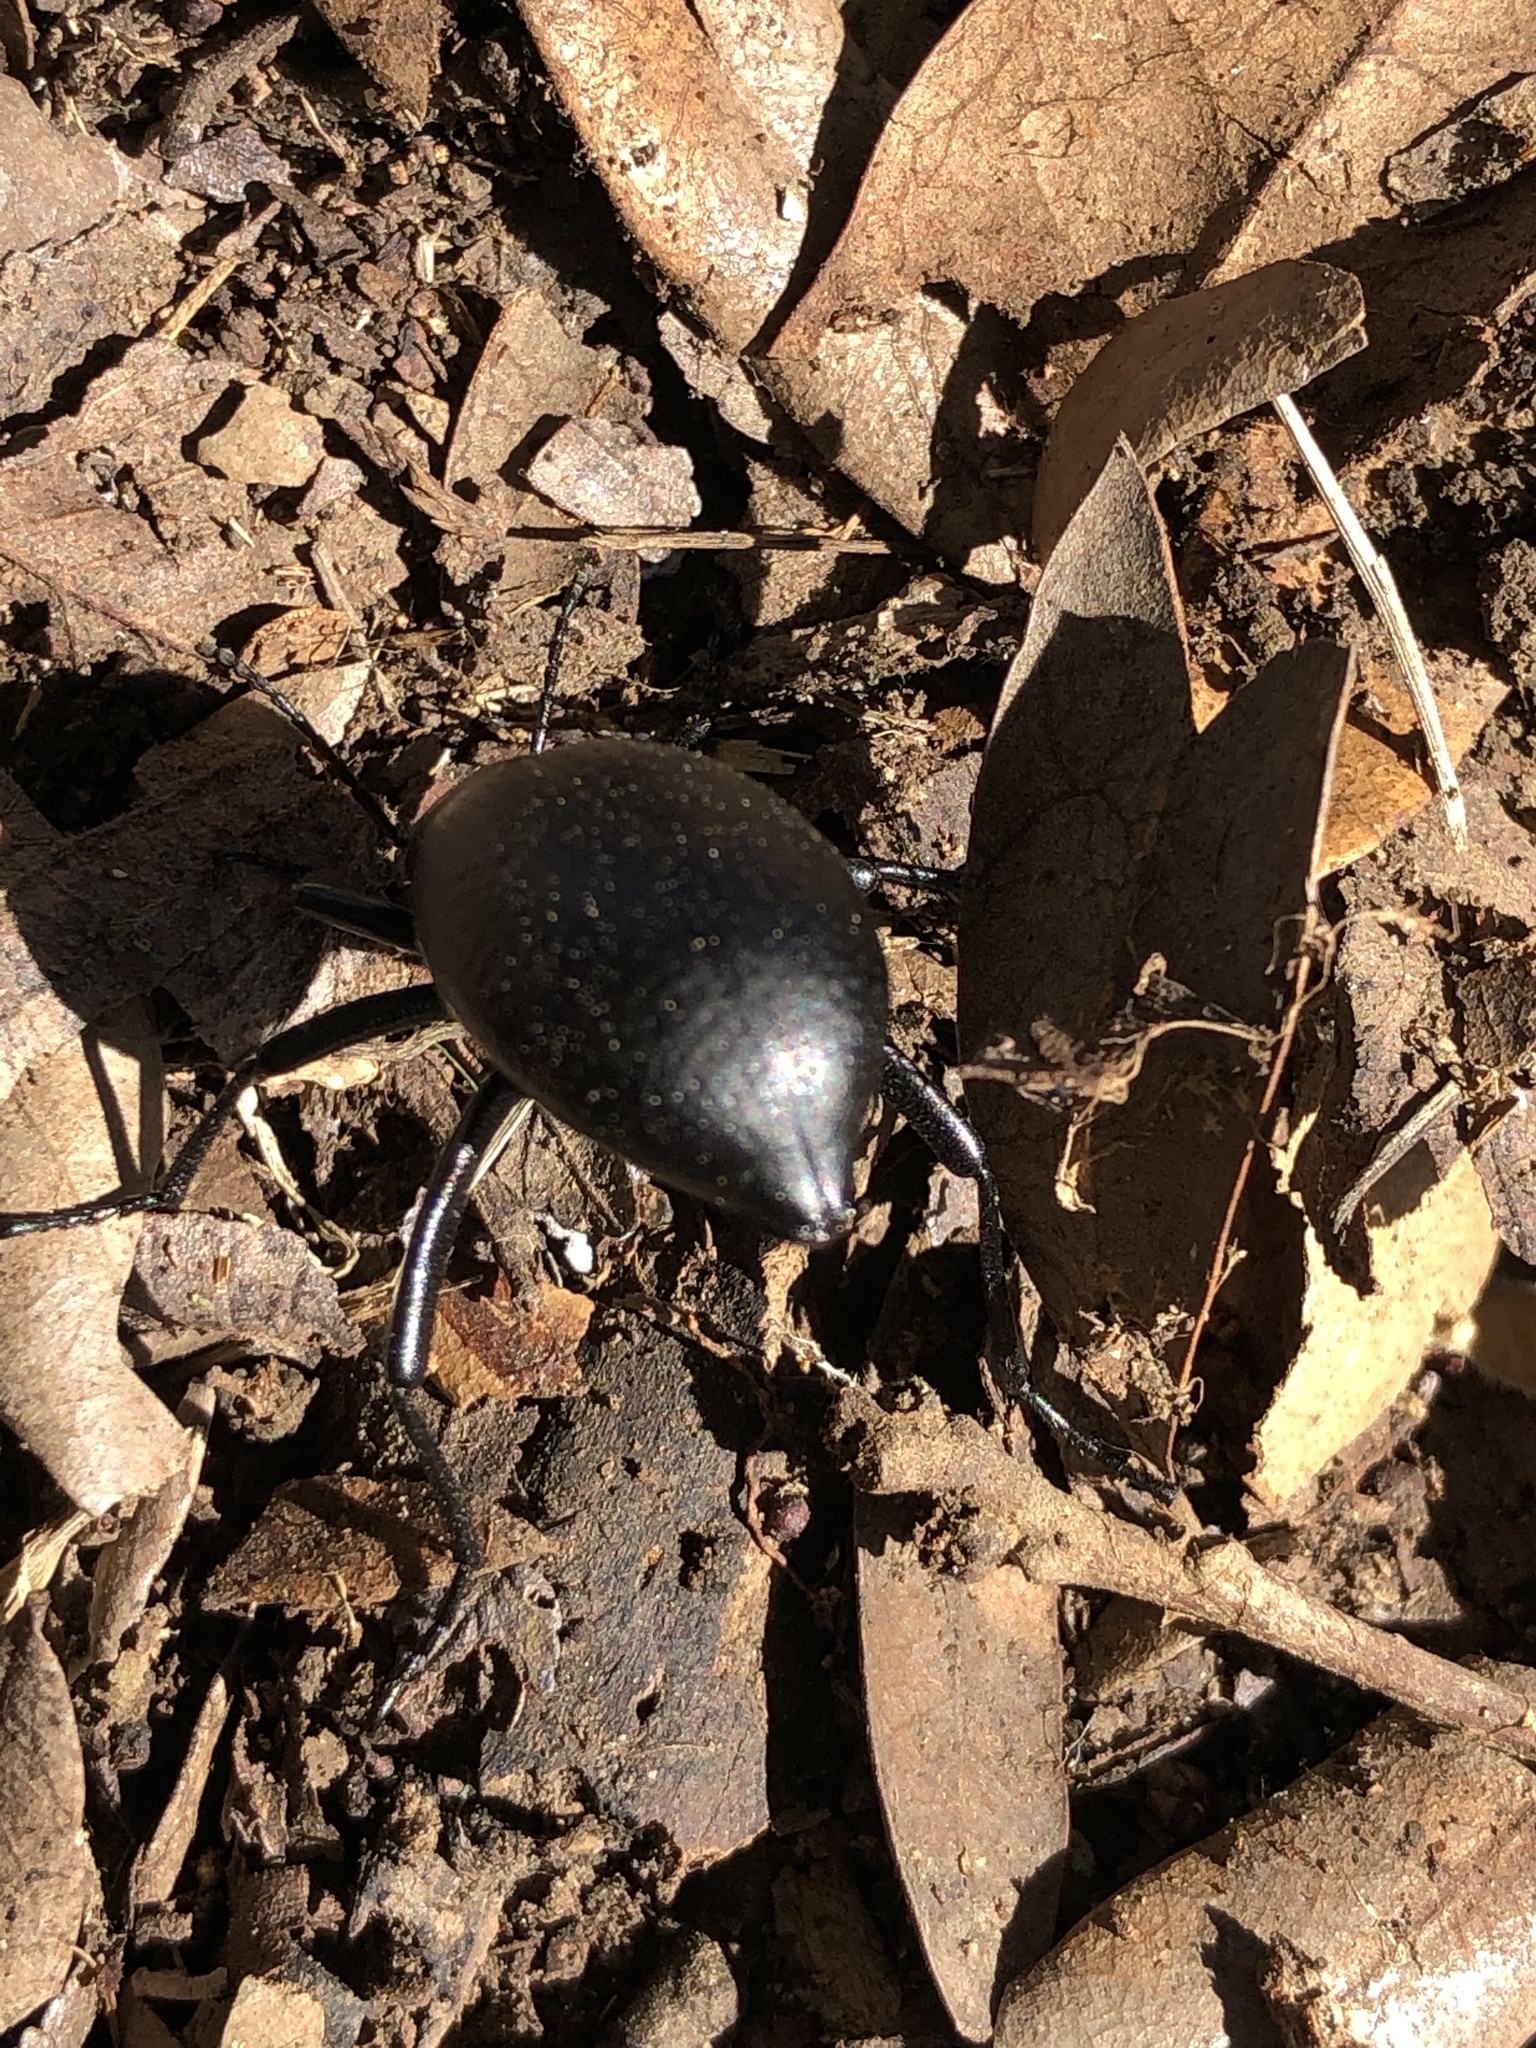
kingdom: Animalia
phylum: Arthropoda
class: Insecta
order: Coleoptera
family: Tenebrionidae
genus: Eleodes
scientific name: Eleodes goryi
